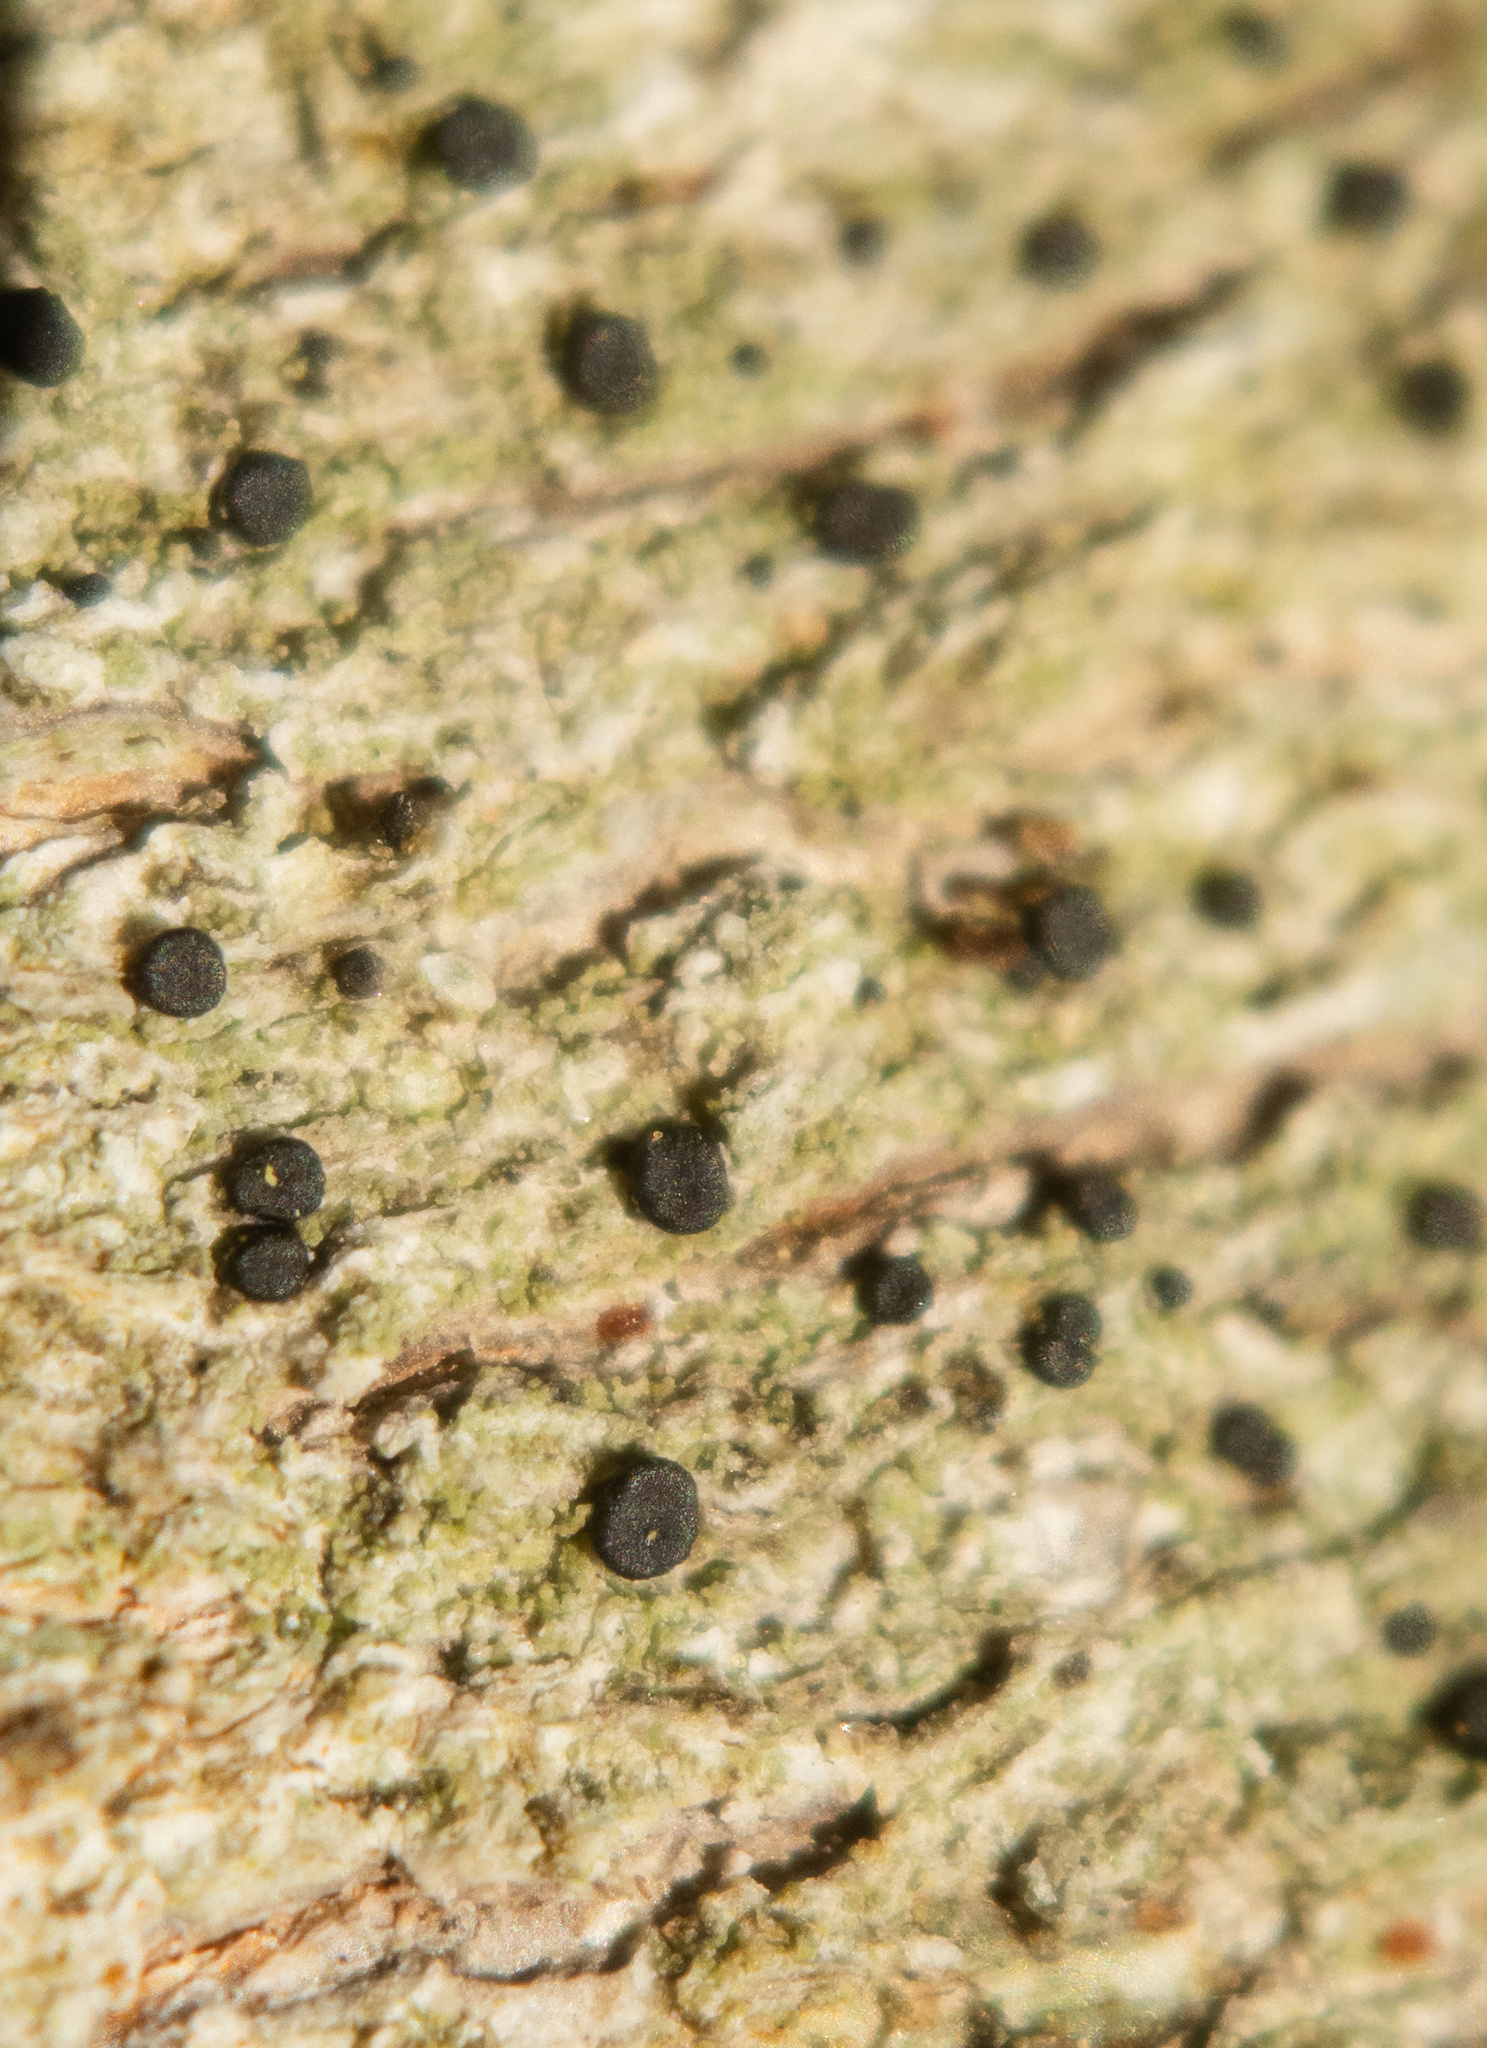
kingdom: Fungi
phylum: Ascomycota
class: Lecanoromycetes
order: Lecanorales
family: Ramalinaceae
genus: Catinaria
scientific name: Catinaria atropurpurea
